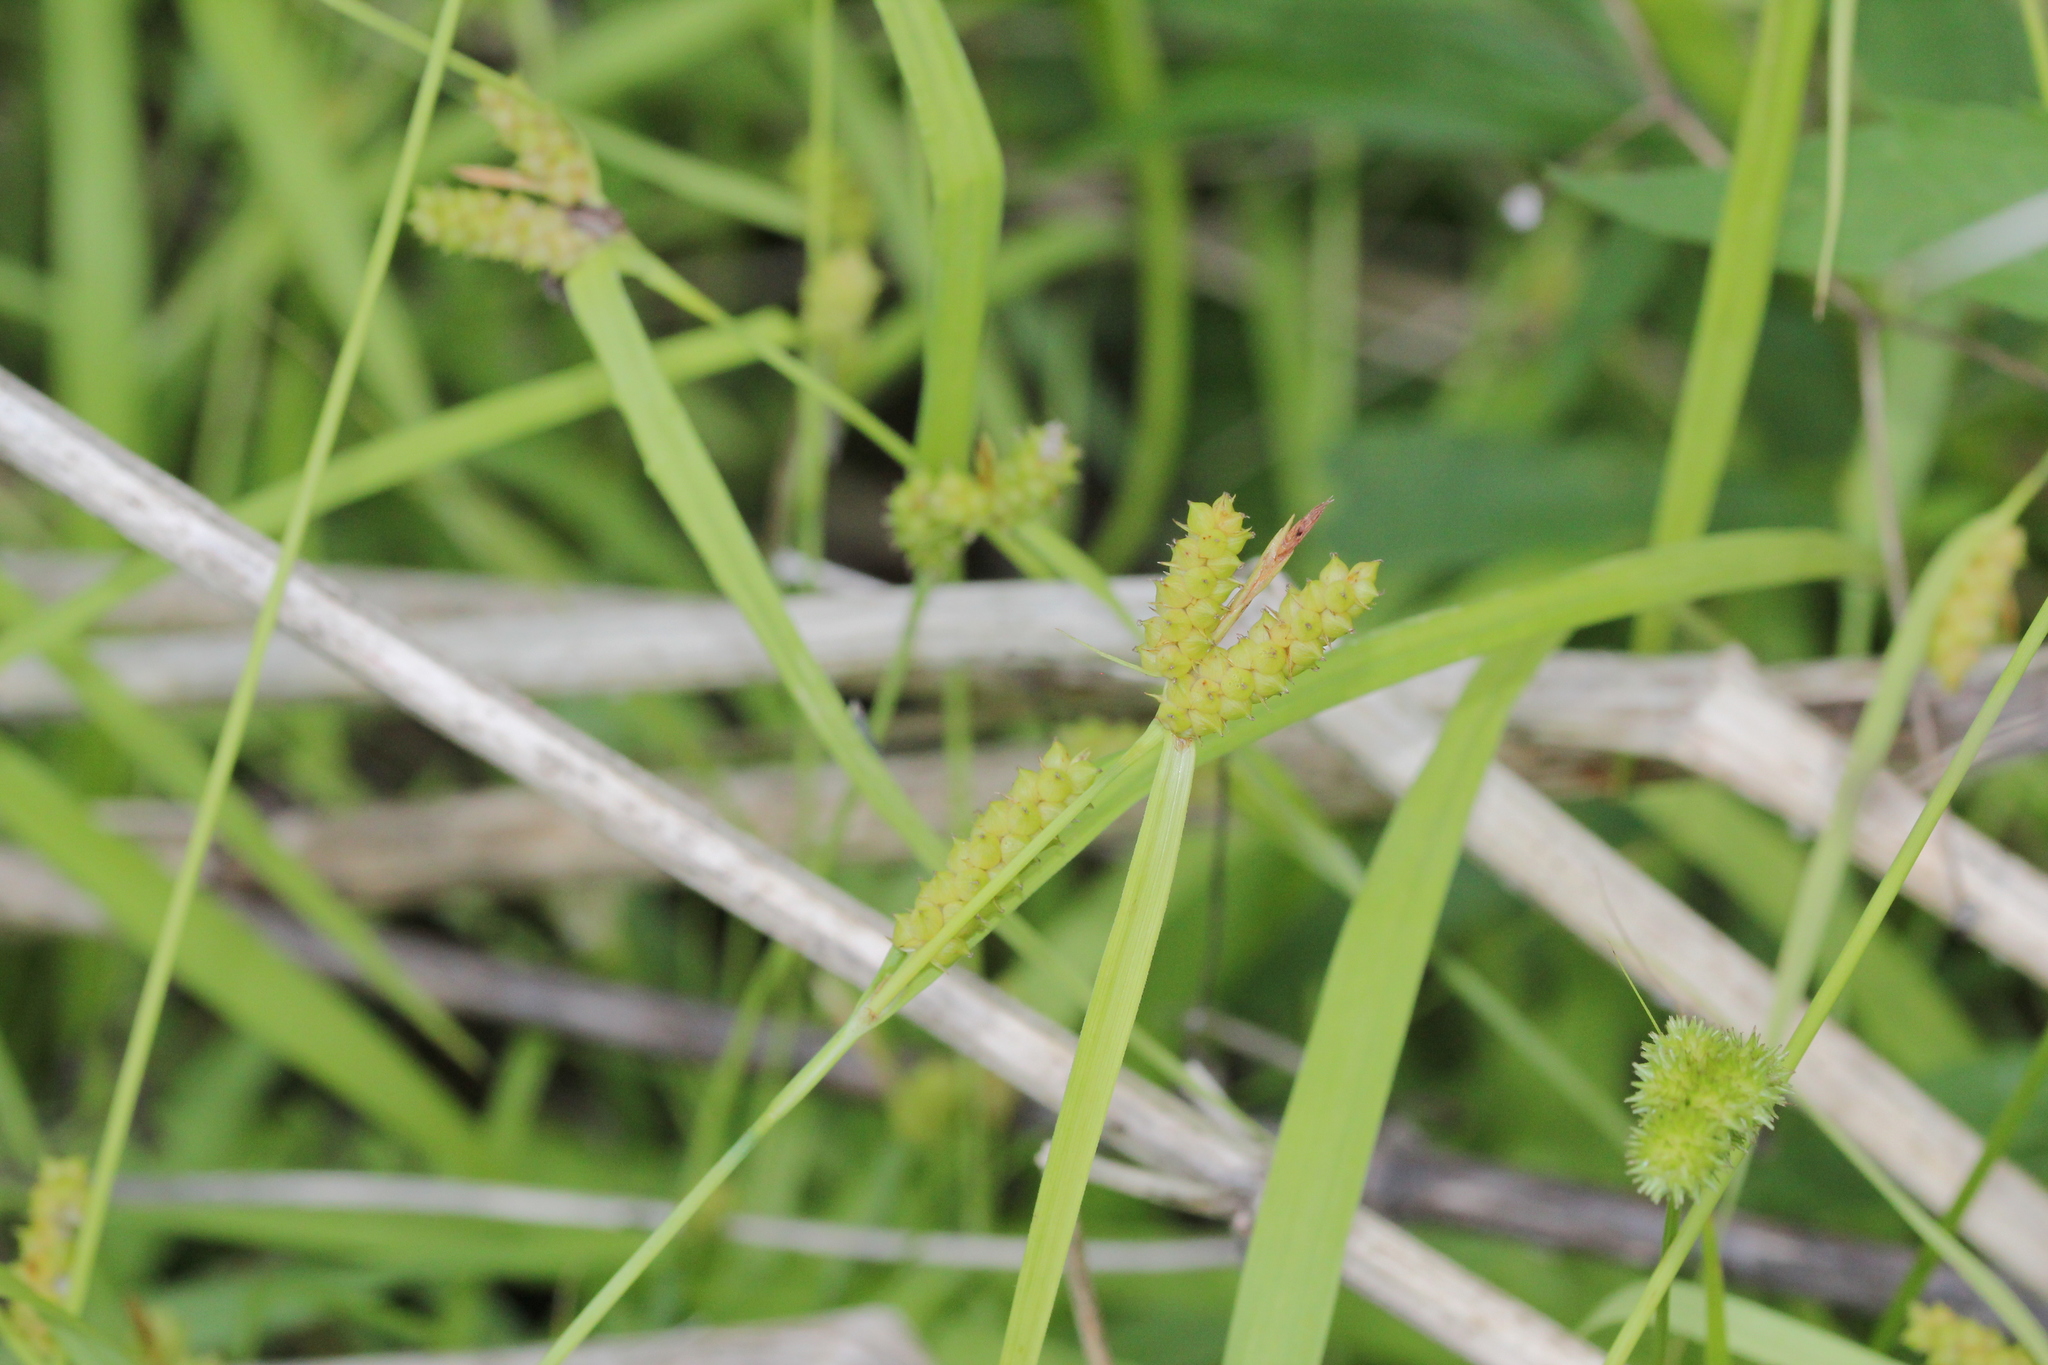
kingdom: Plantae
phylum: Tracheophyta
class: Liliopsida
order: Poales
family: Cyperaceae
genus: Carex
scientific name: Carex granularis
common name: Granular sedge
